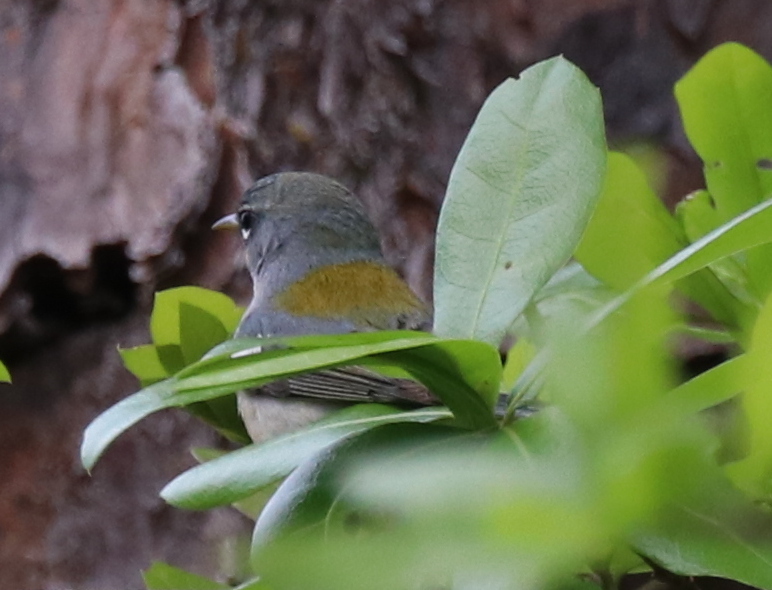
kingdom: Animalia
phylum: Chordata
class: Aves
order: Passeriformes
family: Parulidae
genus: Setophaga
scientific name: Setophaga americana
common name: Northern parula
